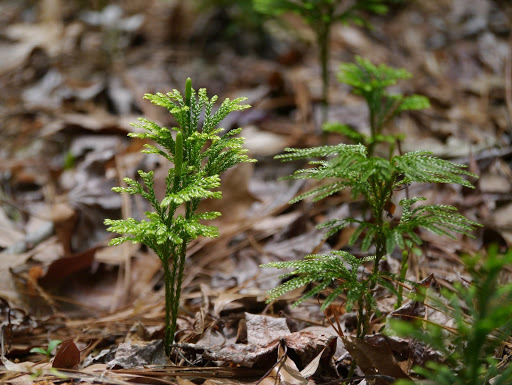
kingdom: Plantae
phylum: Tracheophyta
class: Lycopodiopsida
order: Lycopodiales
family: Lycopodiaceae
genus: Dendrolycopodium
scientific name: Dendrolycopodium obscurum
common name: Common ground-pine
